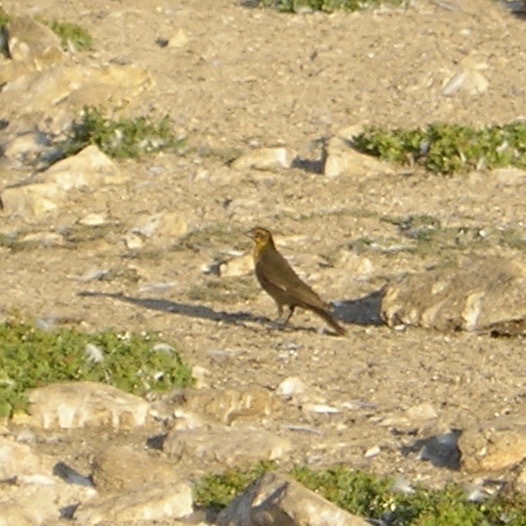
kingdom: Animalia
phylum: Chordata
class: Aves
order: Passeriformes
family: Icteridae
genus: Xanthocephalus
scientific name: Xanthocephalus xanthocephalus
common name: Yellow-headed blackbird
